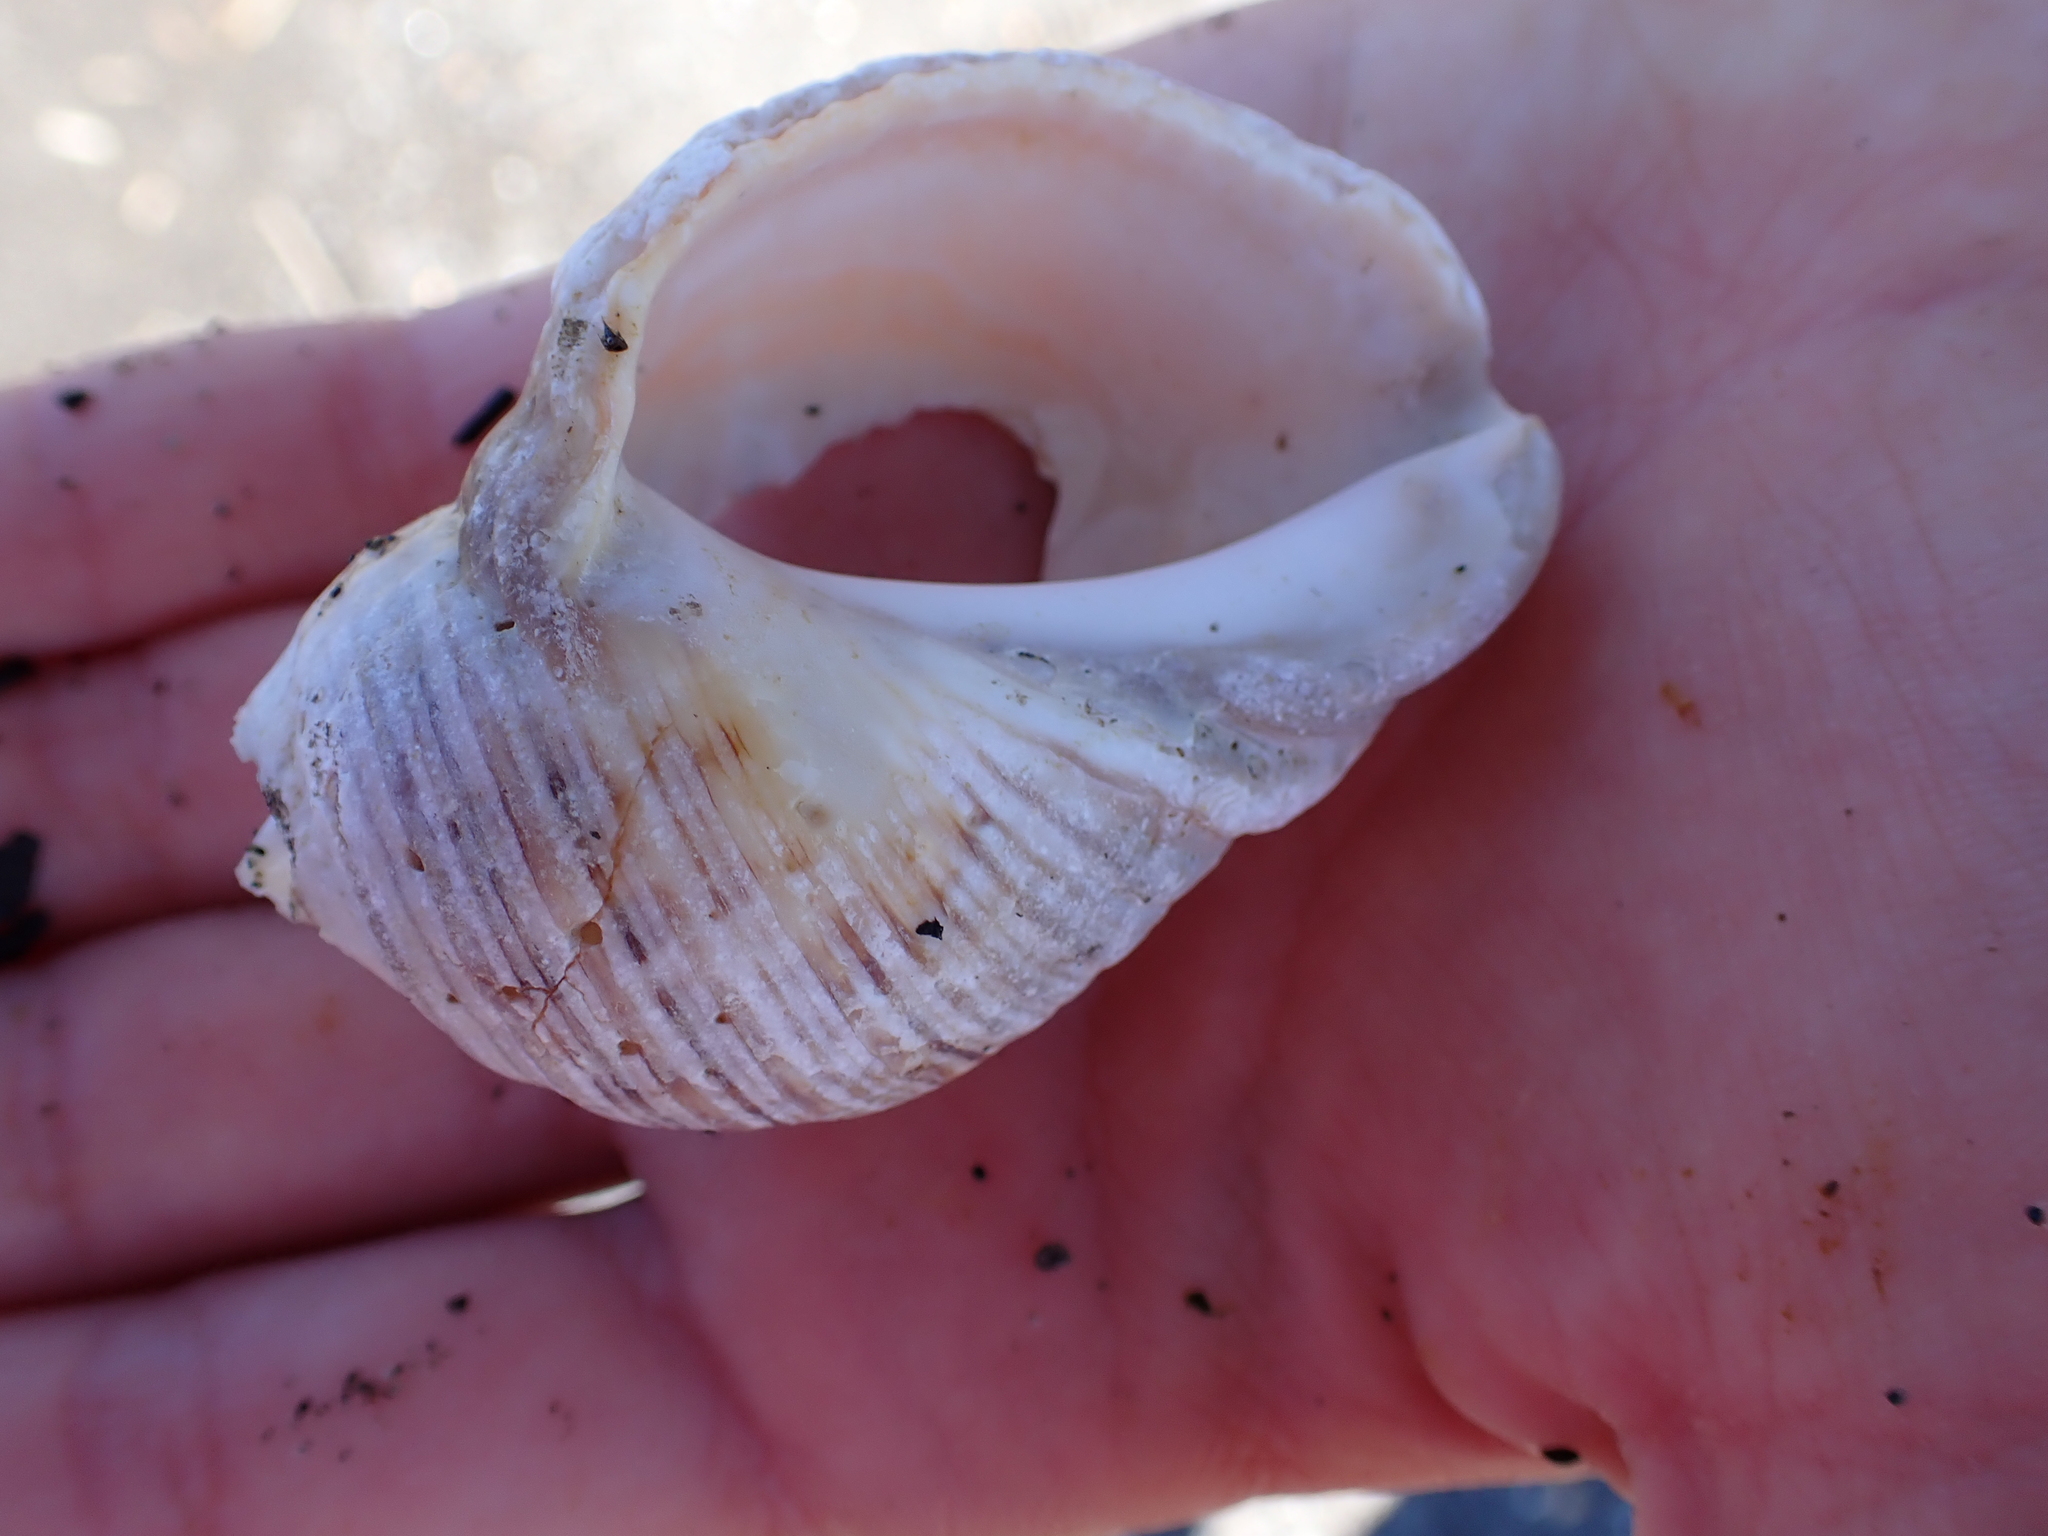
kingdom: Animalia
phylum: Mollusca
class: Gastropoda
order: Neogastropoda
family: Muricidae
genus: Dicathais
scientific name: Dicathais orbita
